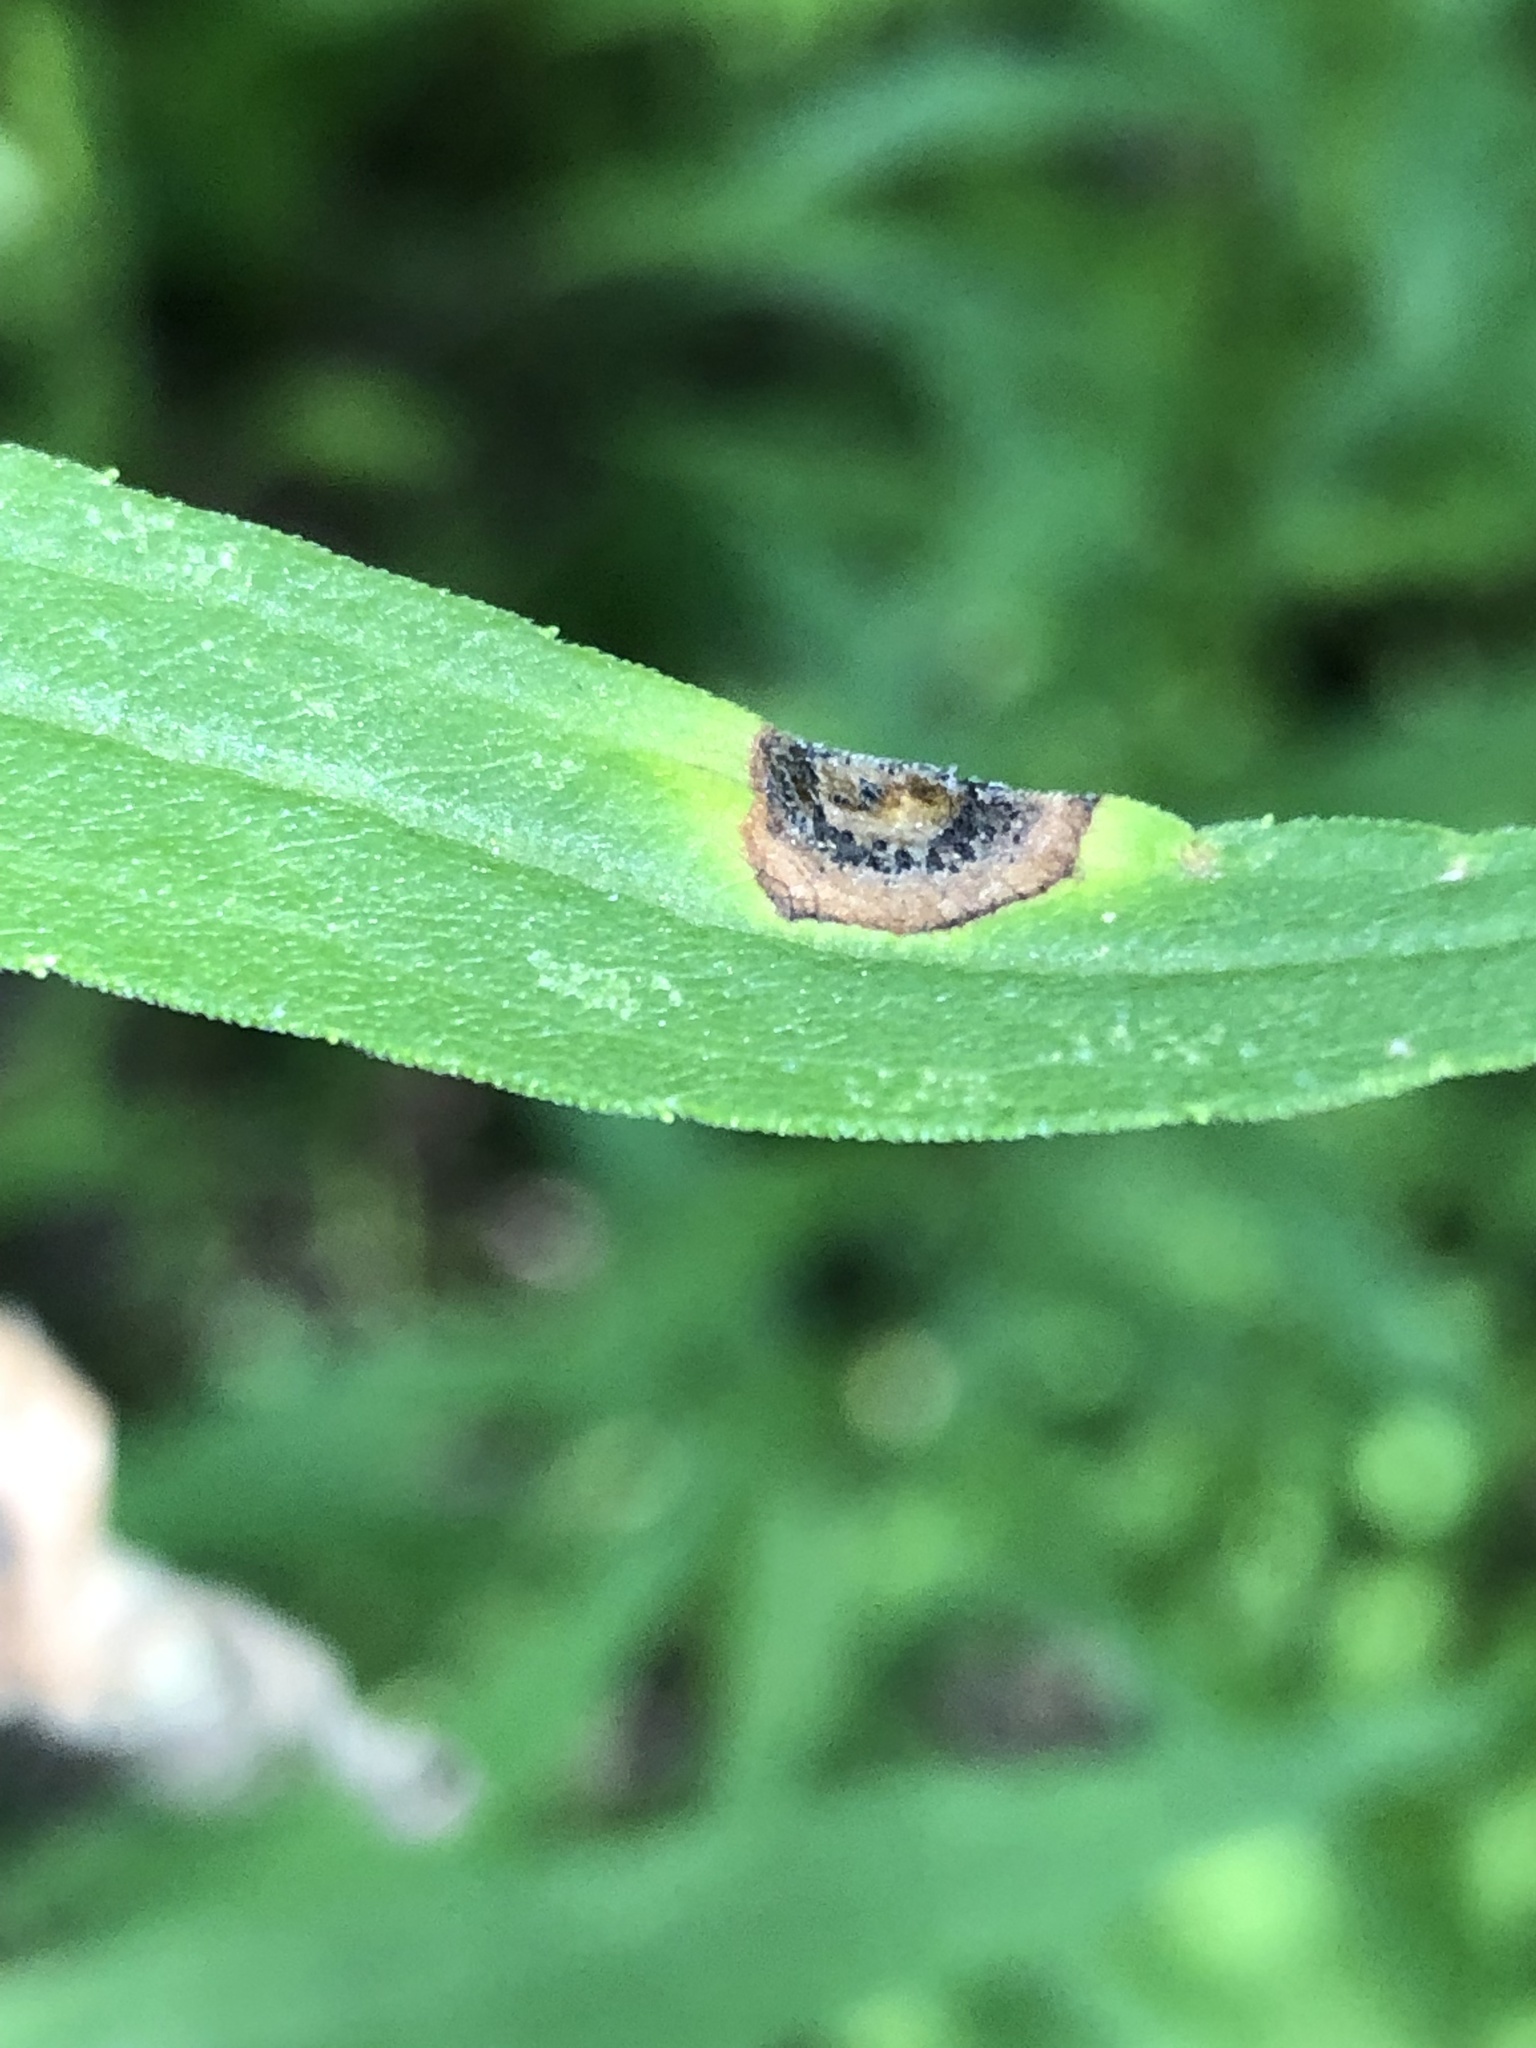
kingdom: Animalia
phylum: Arthropoda
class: Insecta
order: Diptera
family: Cecidomyiidae
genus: Asteromyia
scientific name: Asteromyia carbonifera
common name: Carbonifera goldenrod gall midge
